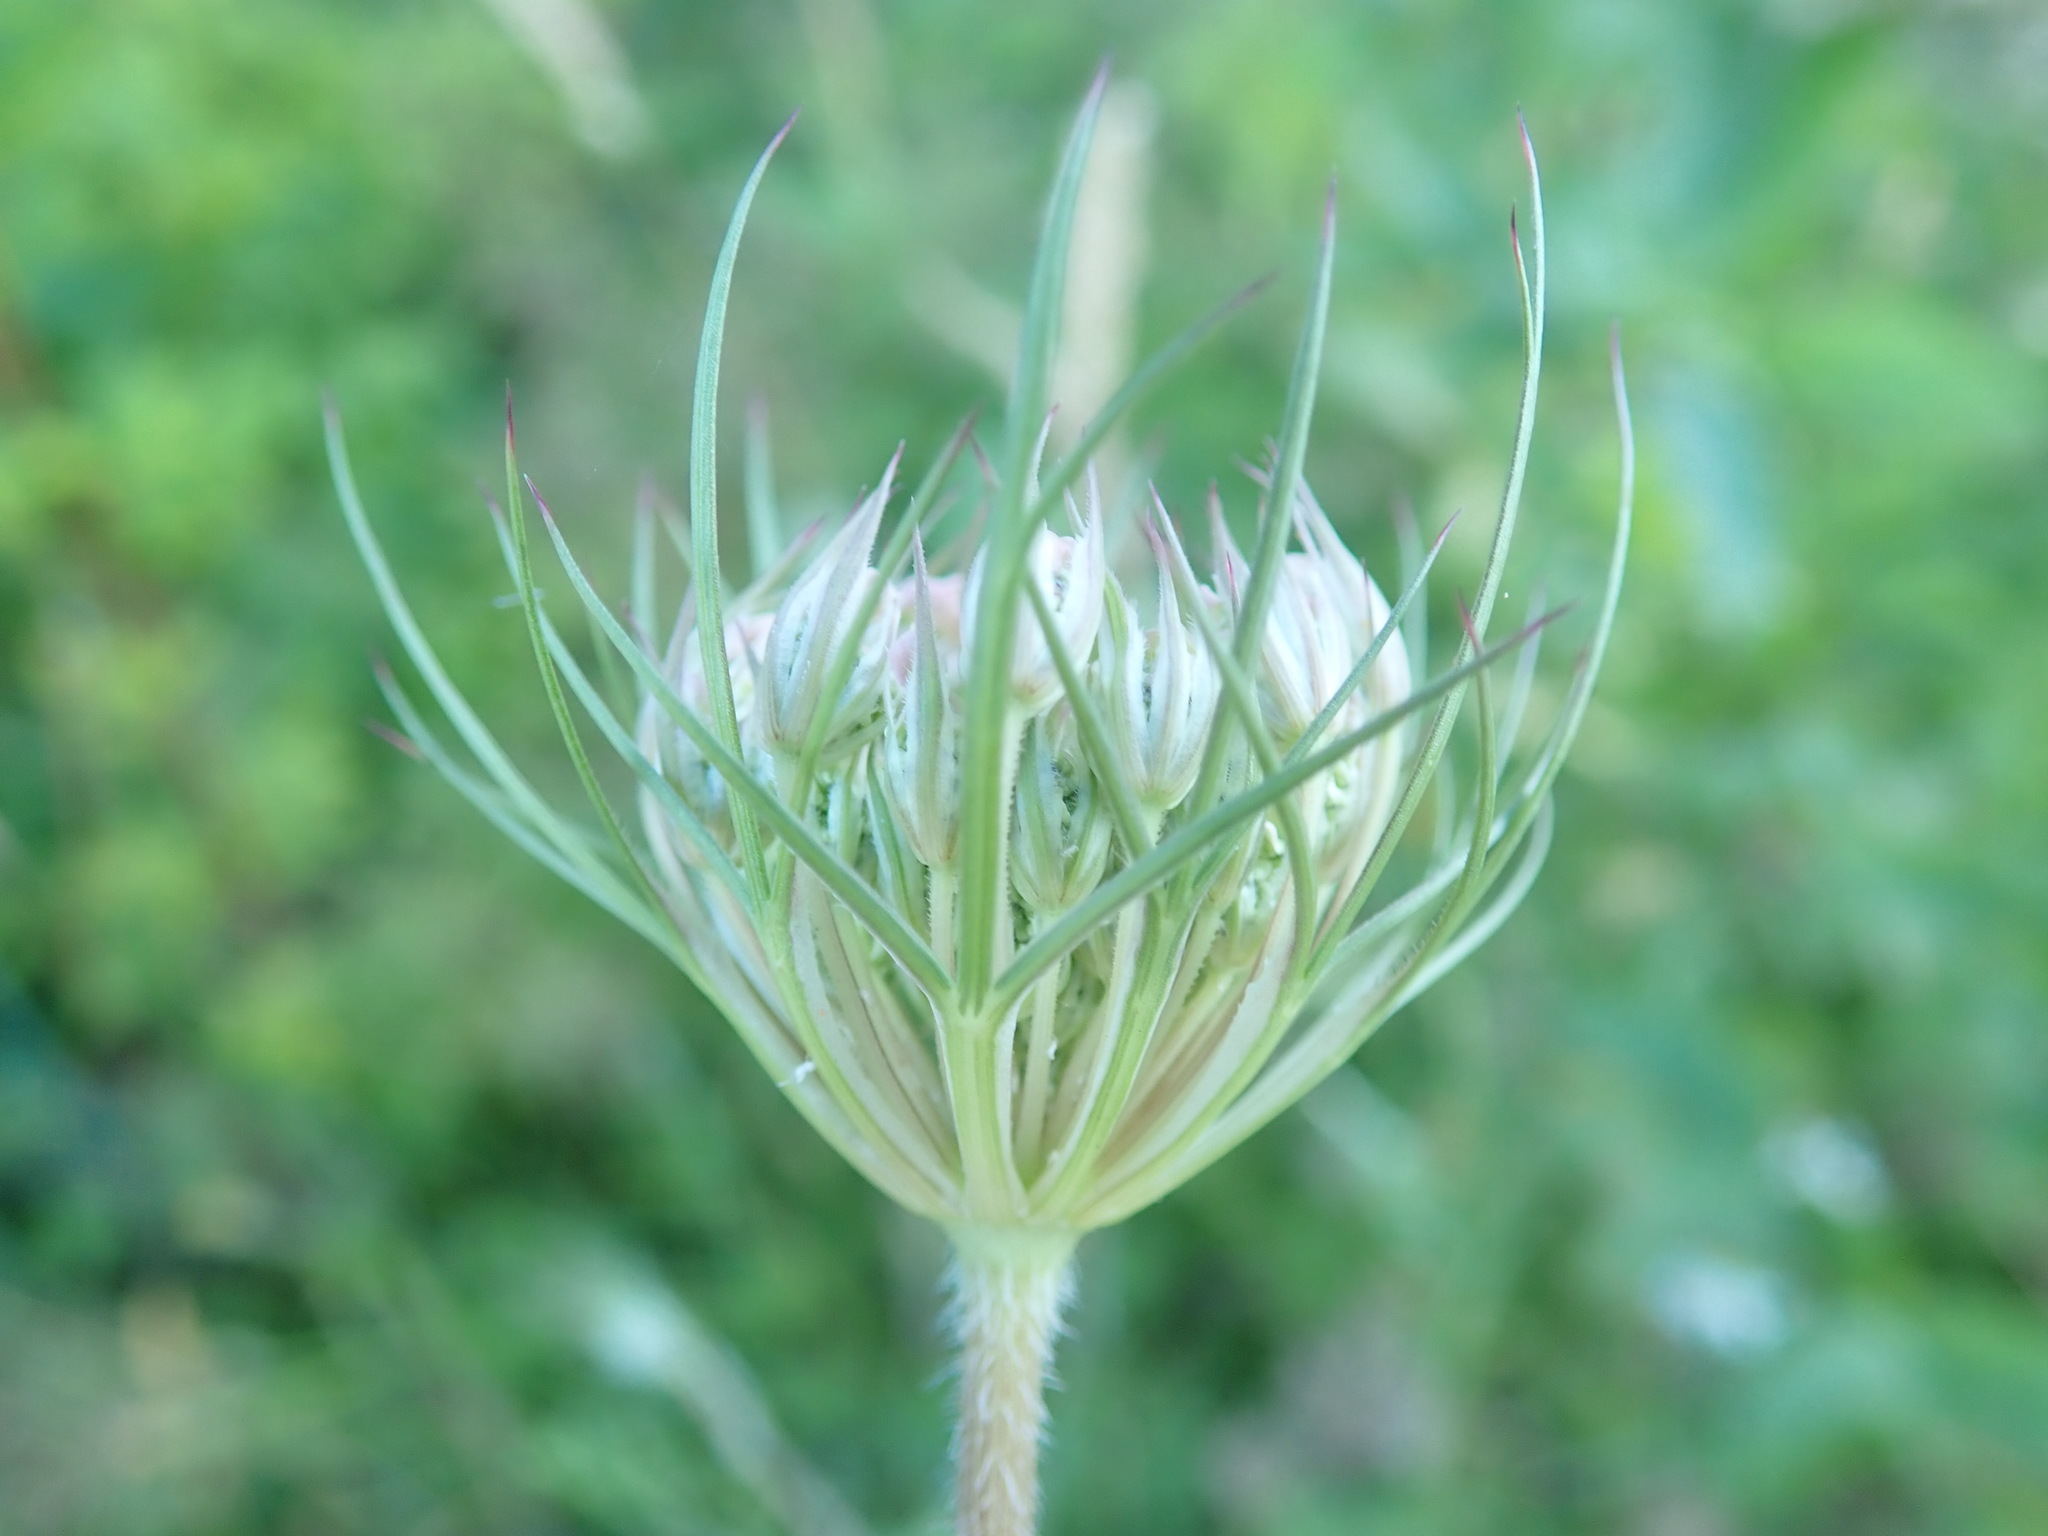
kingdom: Plantae
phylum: Tracheophyta
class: Magnoliopsida
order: Apiales
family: Apiaceae
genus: Daucus
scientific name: Daucus carota
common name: Wild carrot
